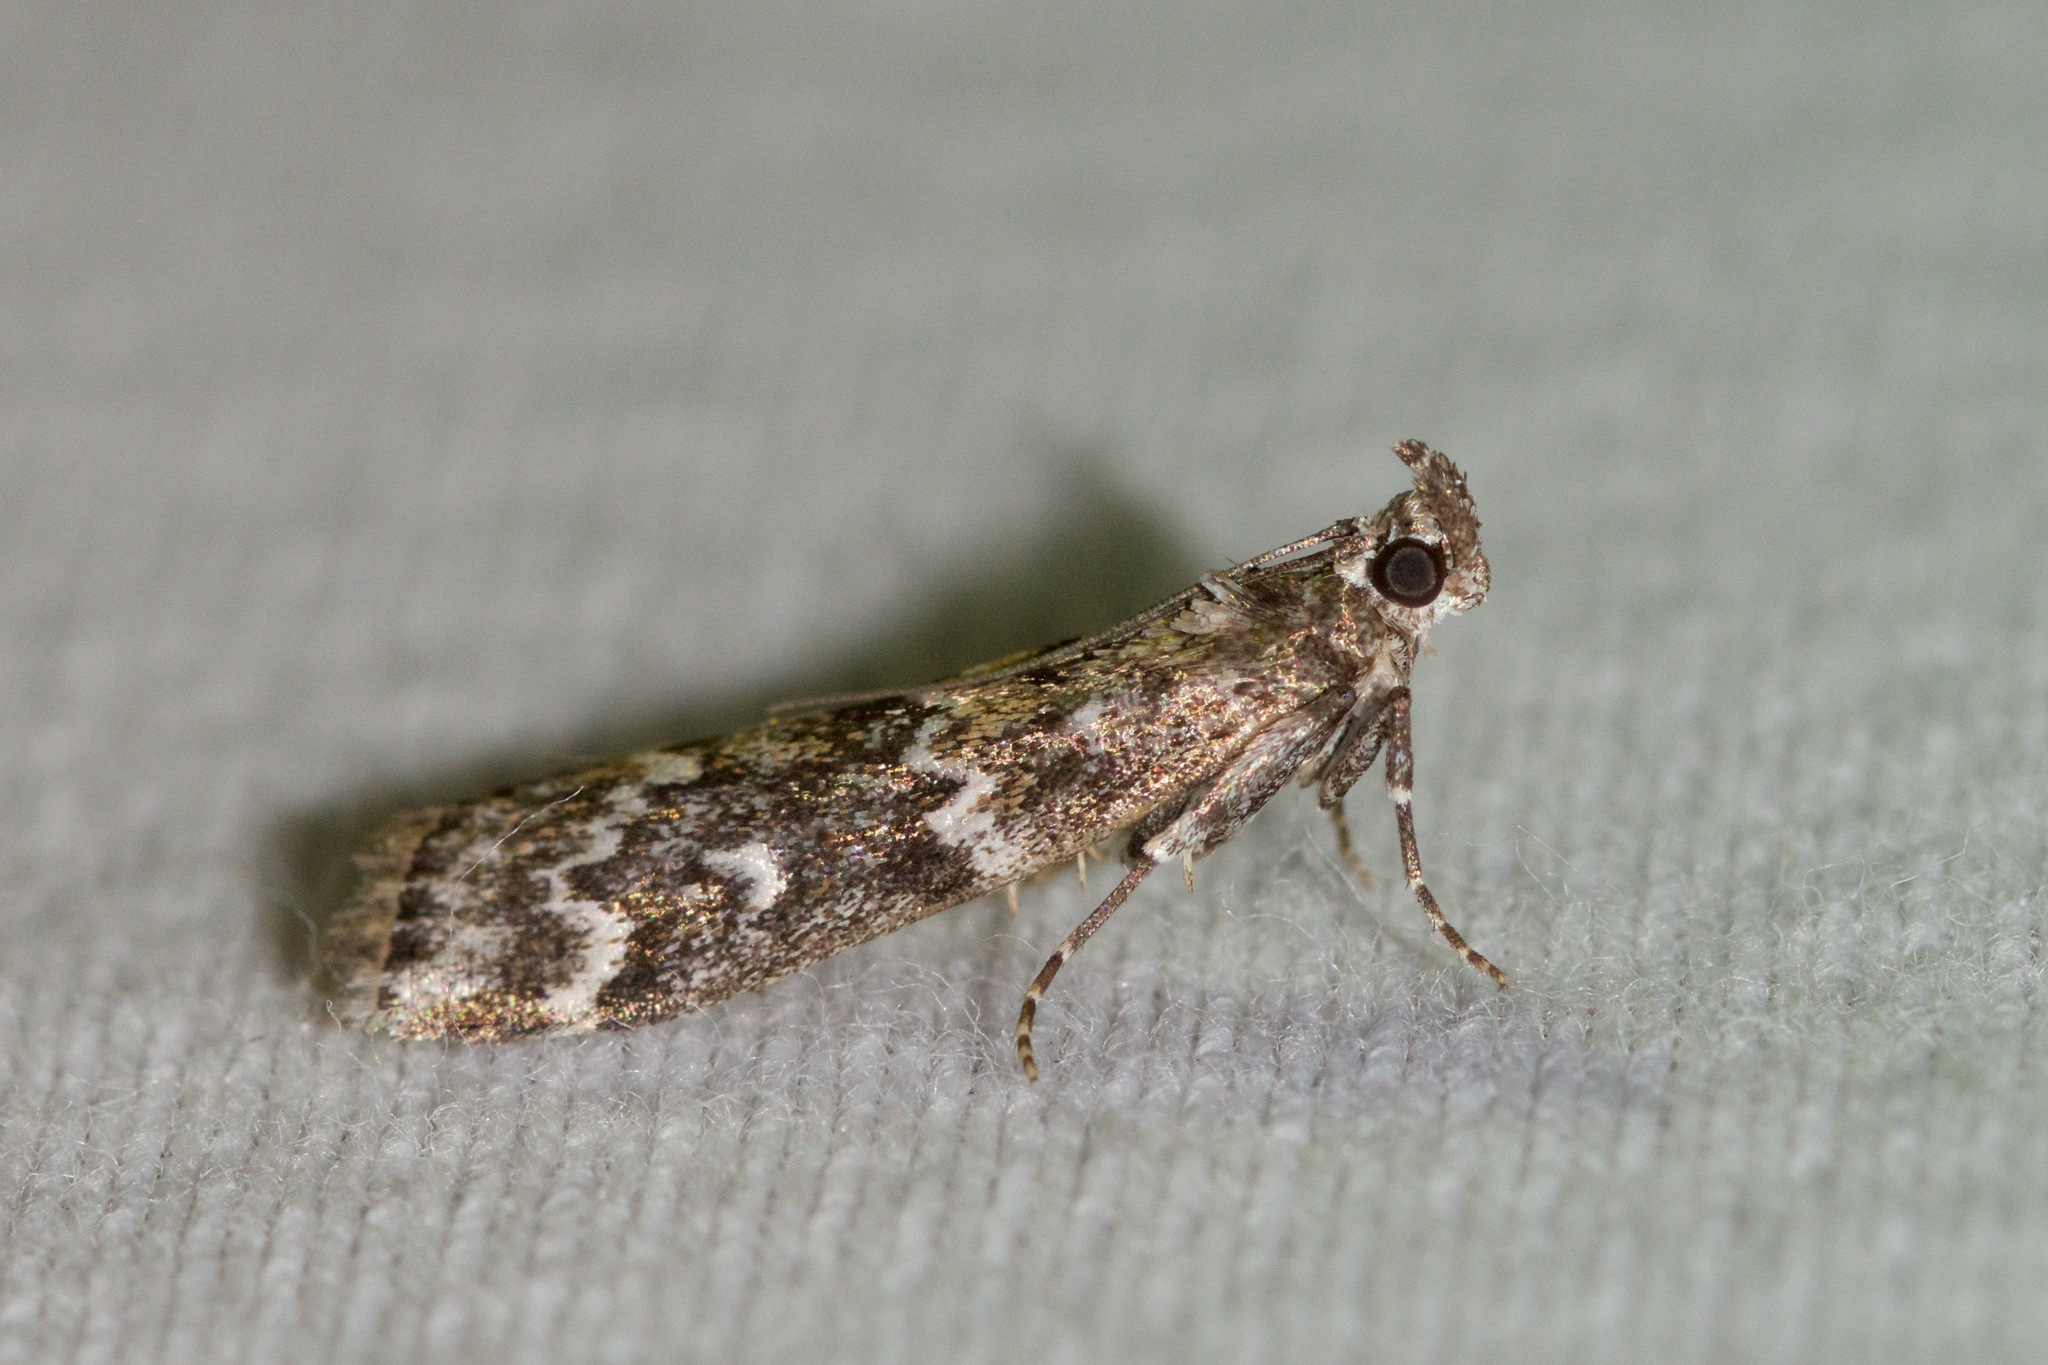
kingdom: Animalia
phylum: Arthropoda
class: Insecta
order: Lepidoptera
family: Pyralidae
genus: Dioryctria
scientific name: Dioryctria reniculelloides
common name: Spruce coneworm moth
